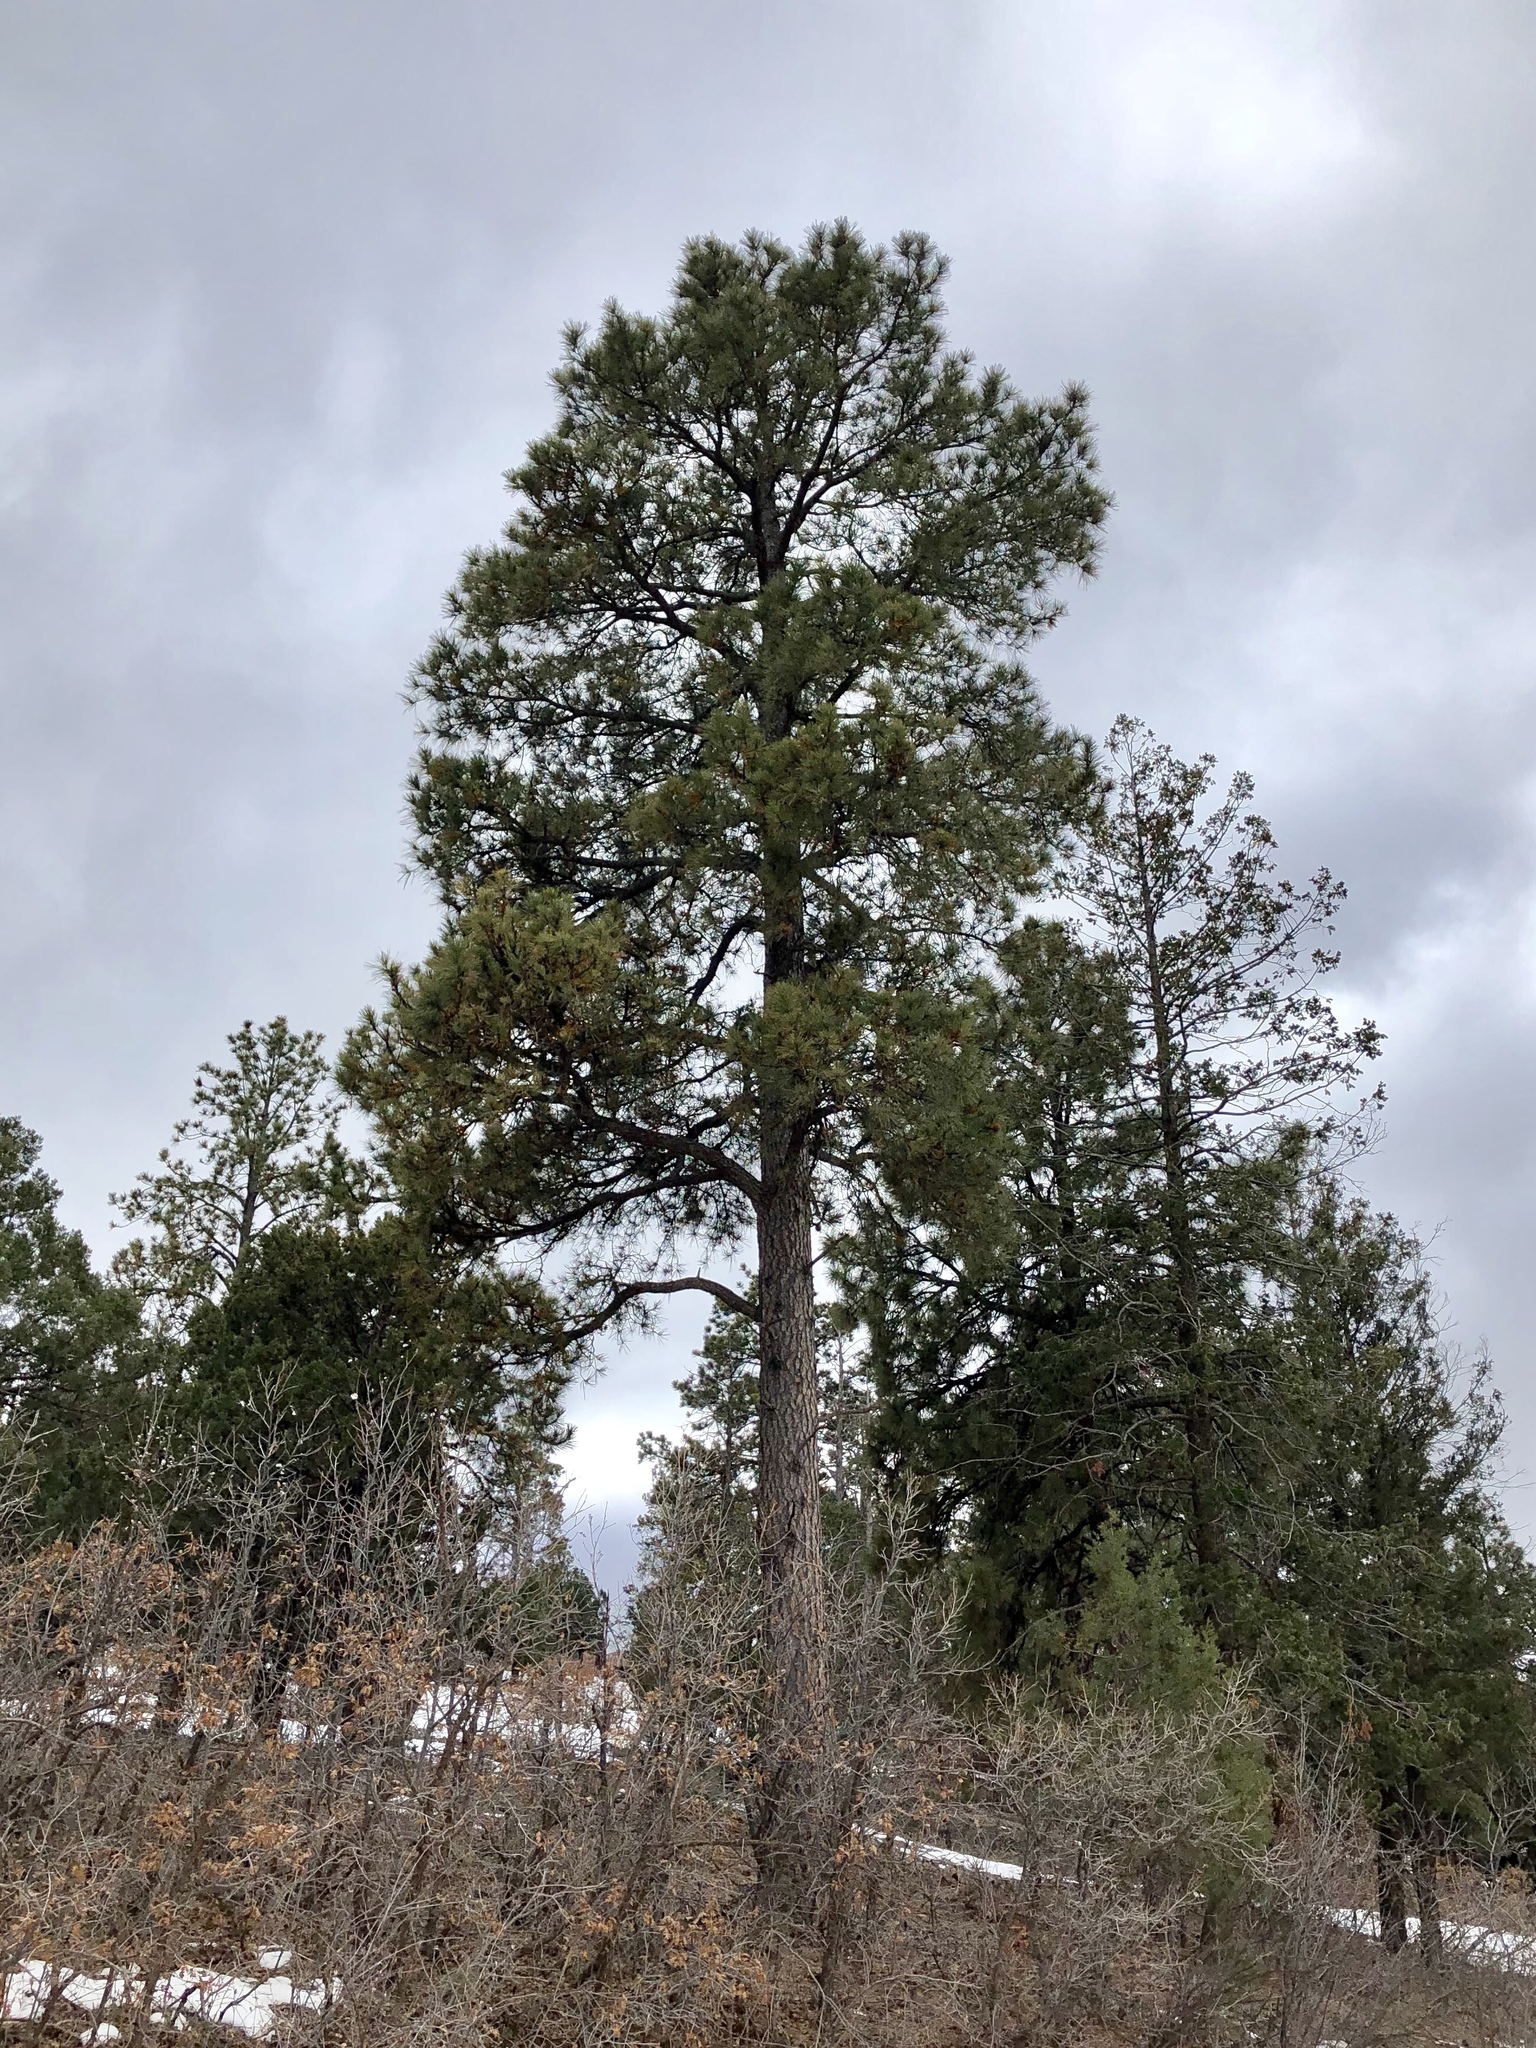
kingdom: Plantae
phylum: Tracheophyta
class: Pinopsida
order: Pinales
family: Pinaceae
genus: Pinus
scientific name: Pinus ponderosa
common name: Western yellow-pine
